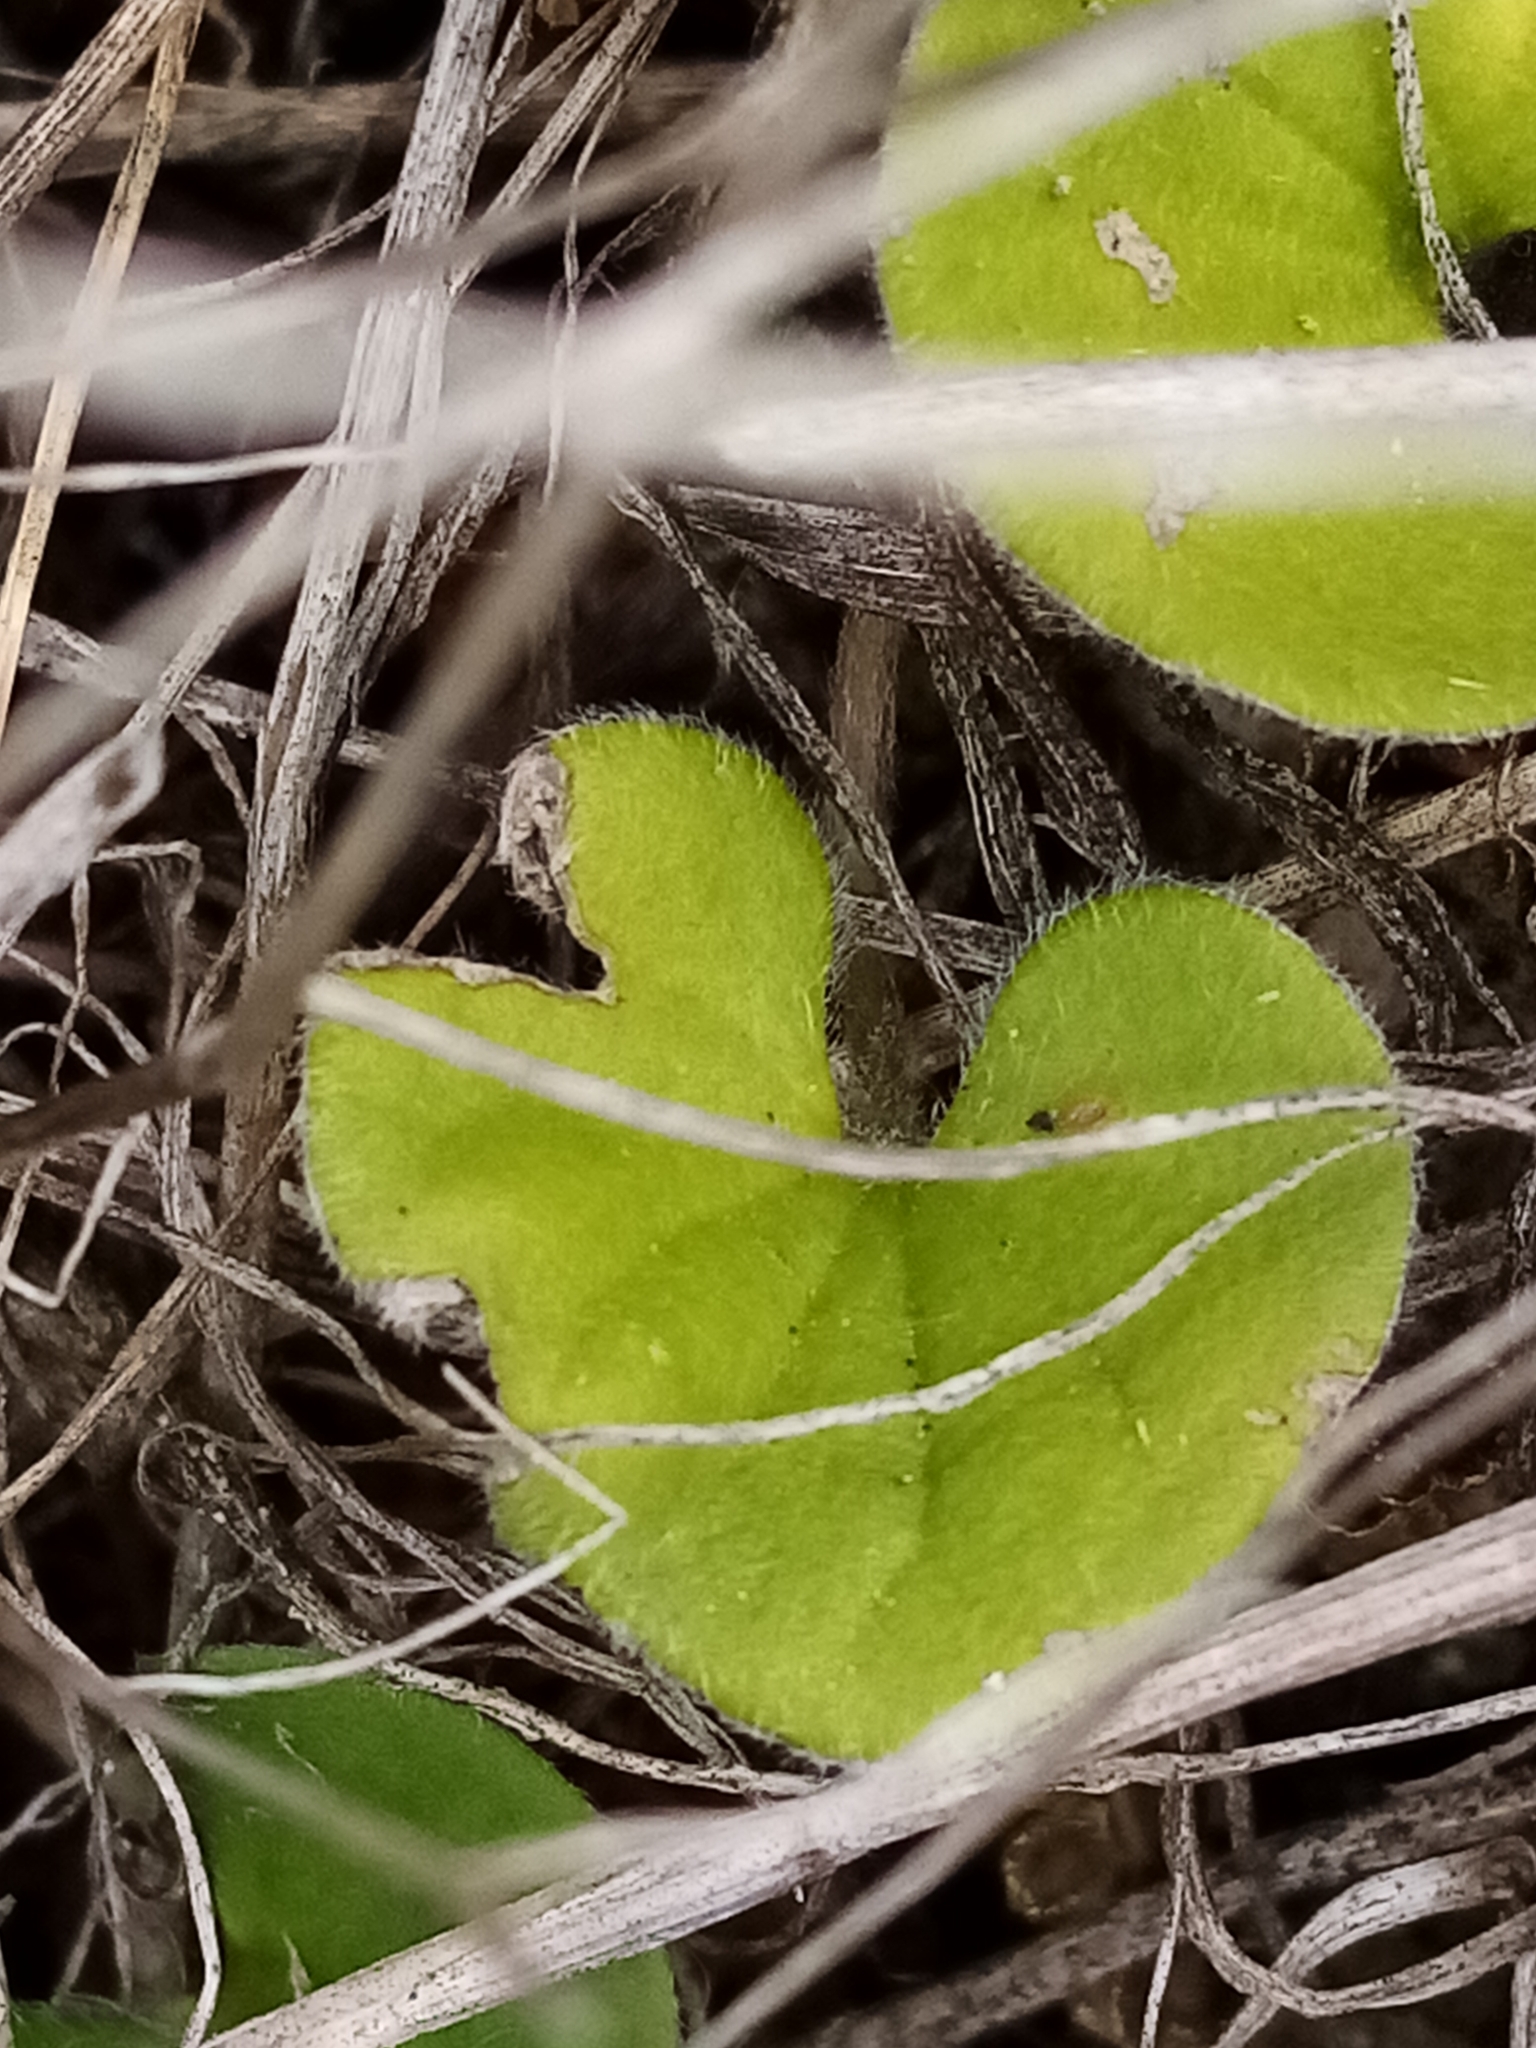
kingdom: Plantae
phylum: Tracheophyta
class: Magnoliopsida
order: Solanales
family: Convolvulaceae
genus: Dichondra
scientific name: Dichondra repens
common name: Kidneyweed
